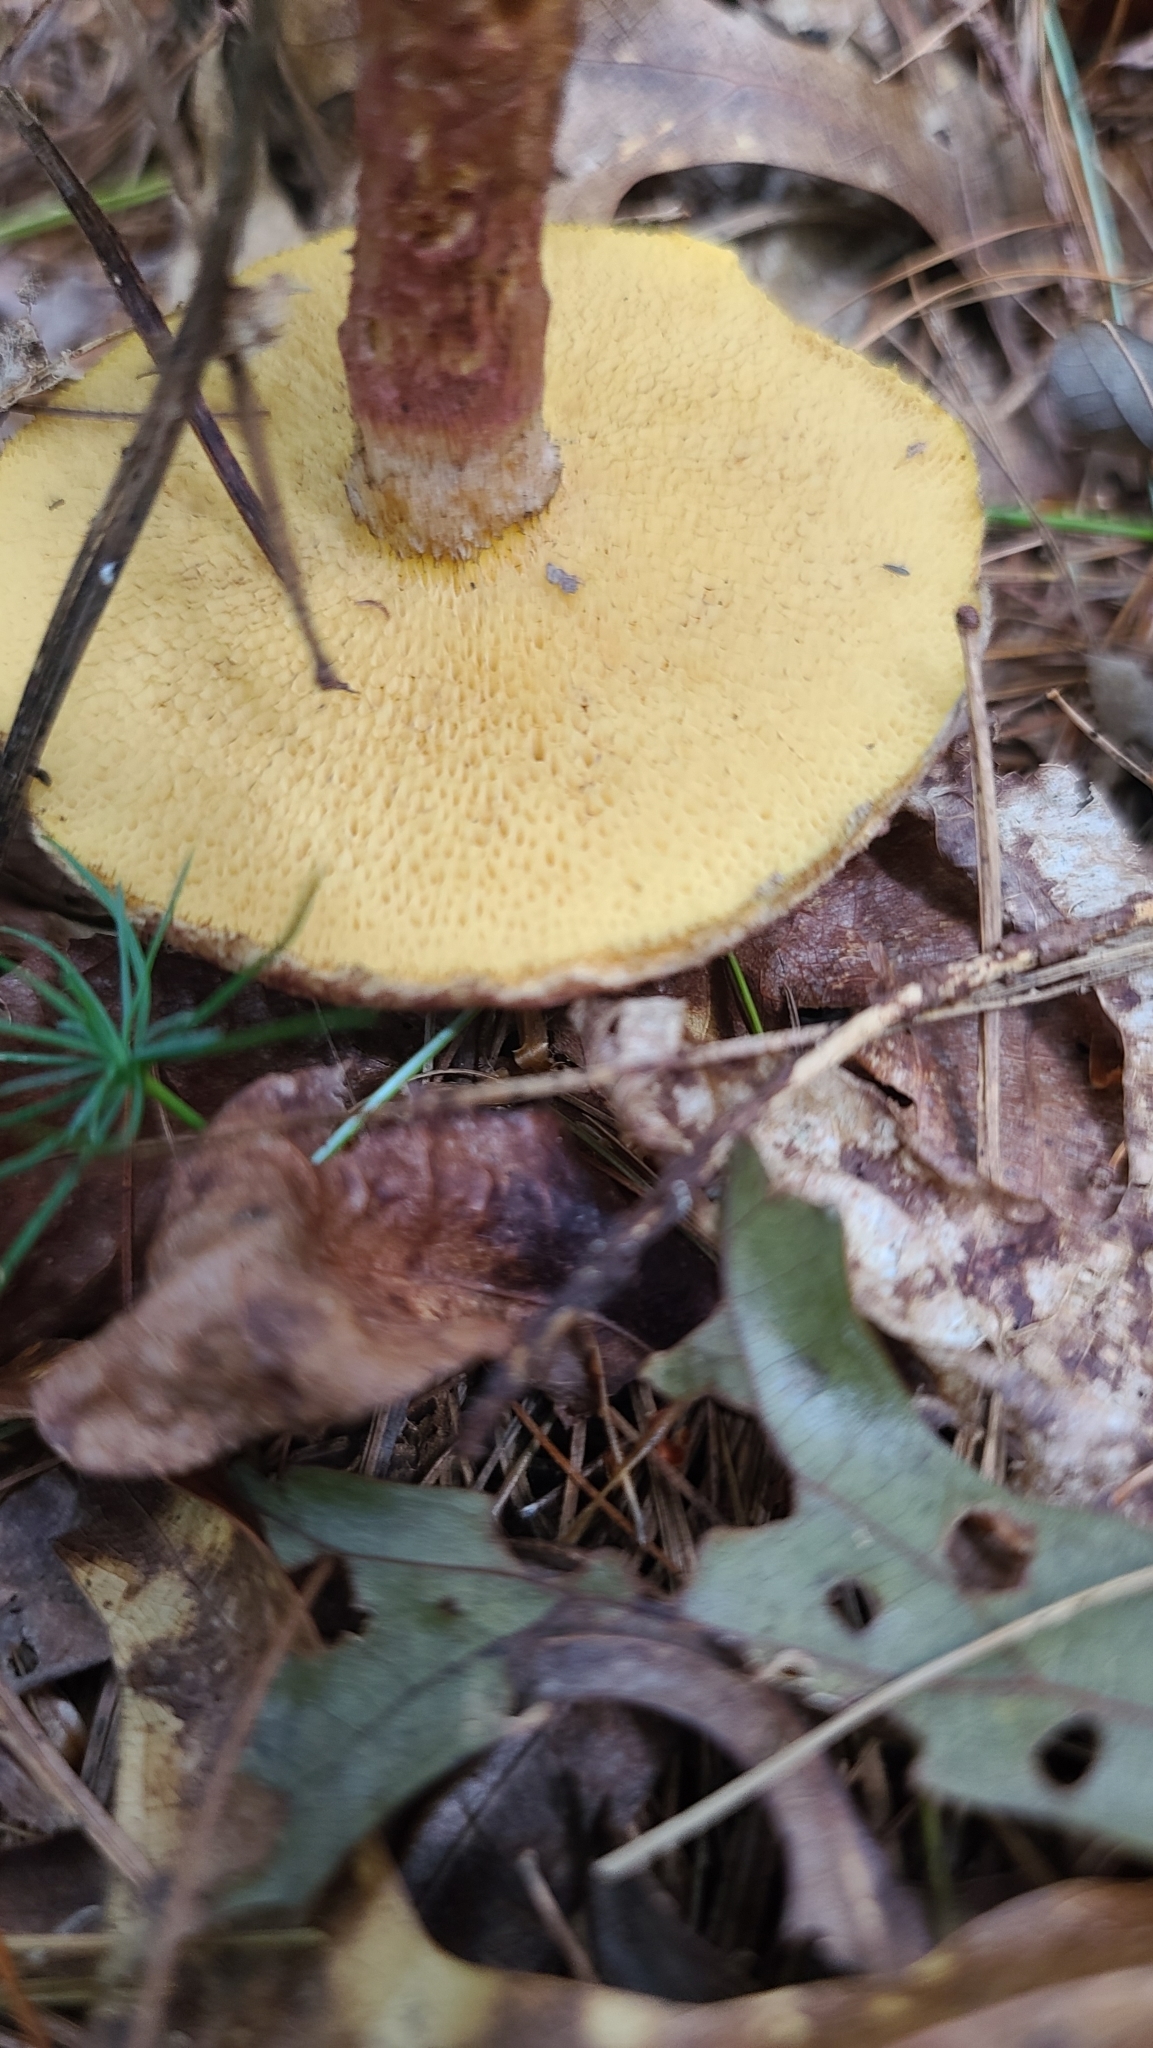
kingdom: Fungi
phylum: Basidiomycota
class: Agaricomycetes
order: Boletales
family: Suillaceae
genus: Suillus
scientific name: Suillus spraguei
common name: Painted suillus
